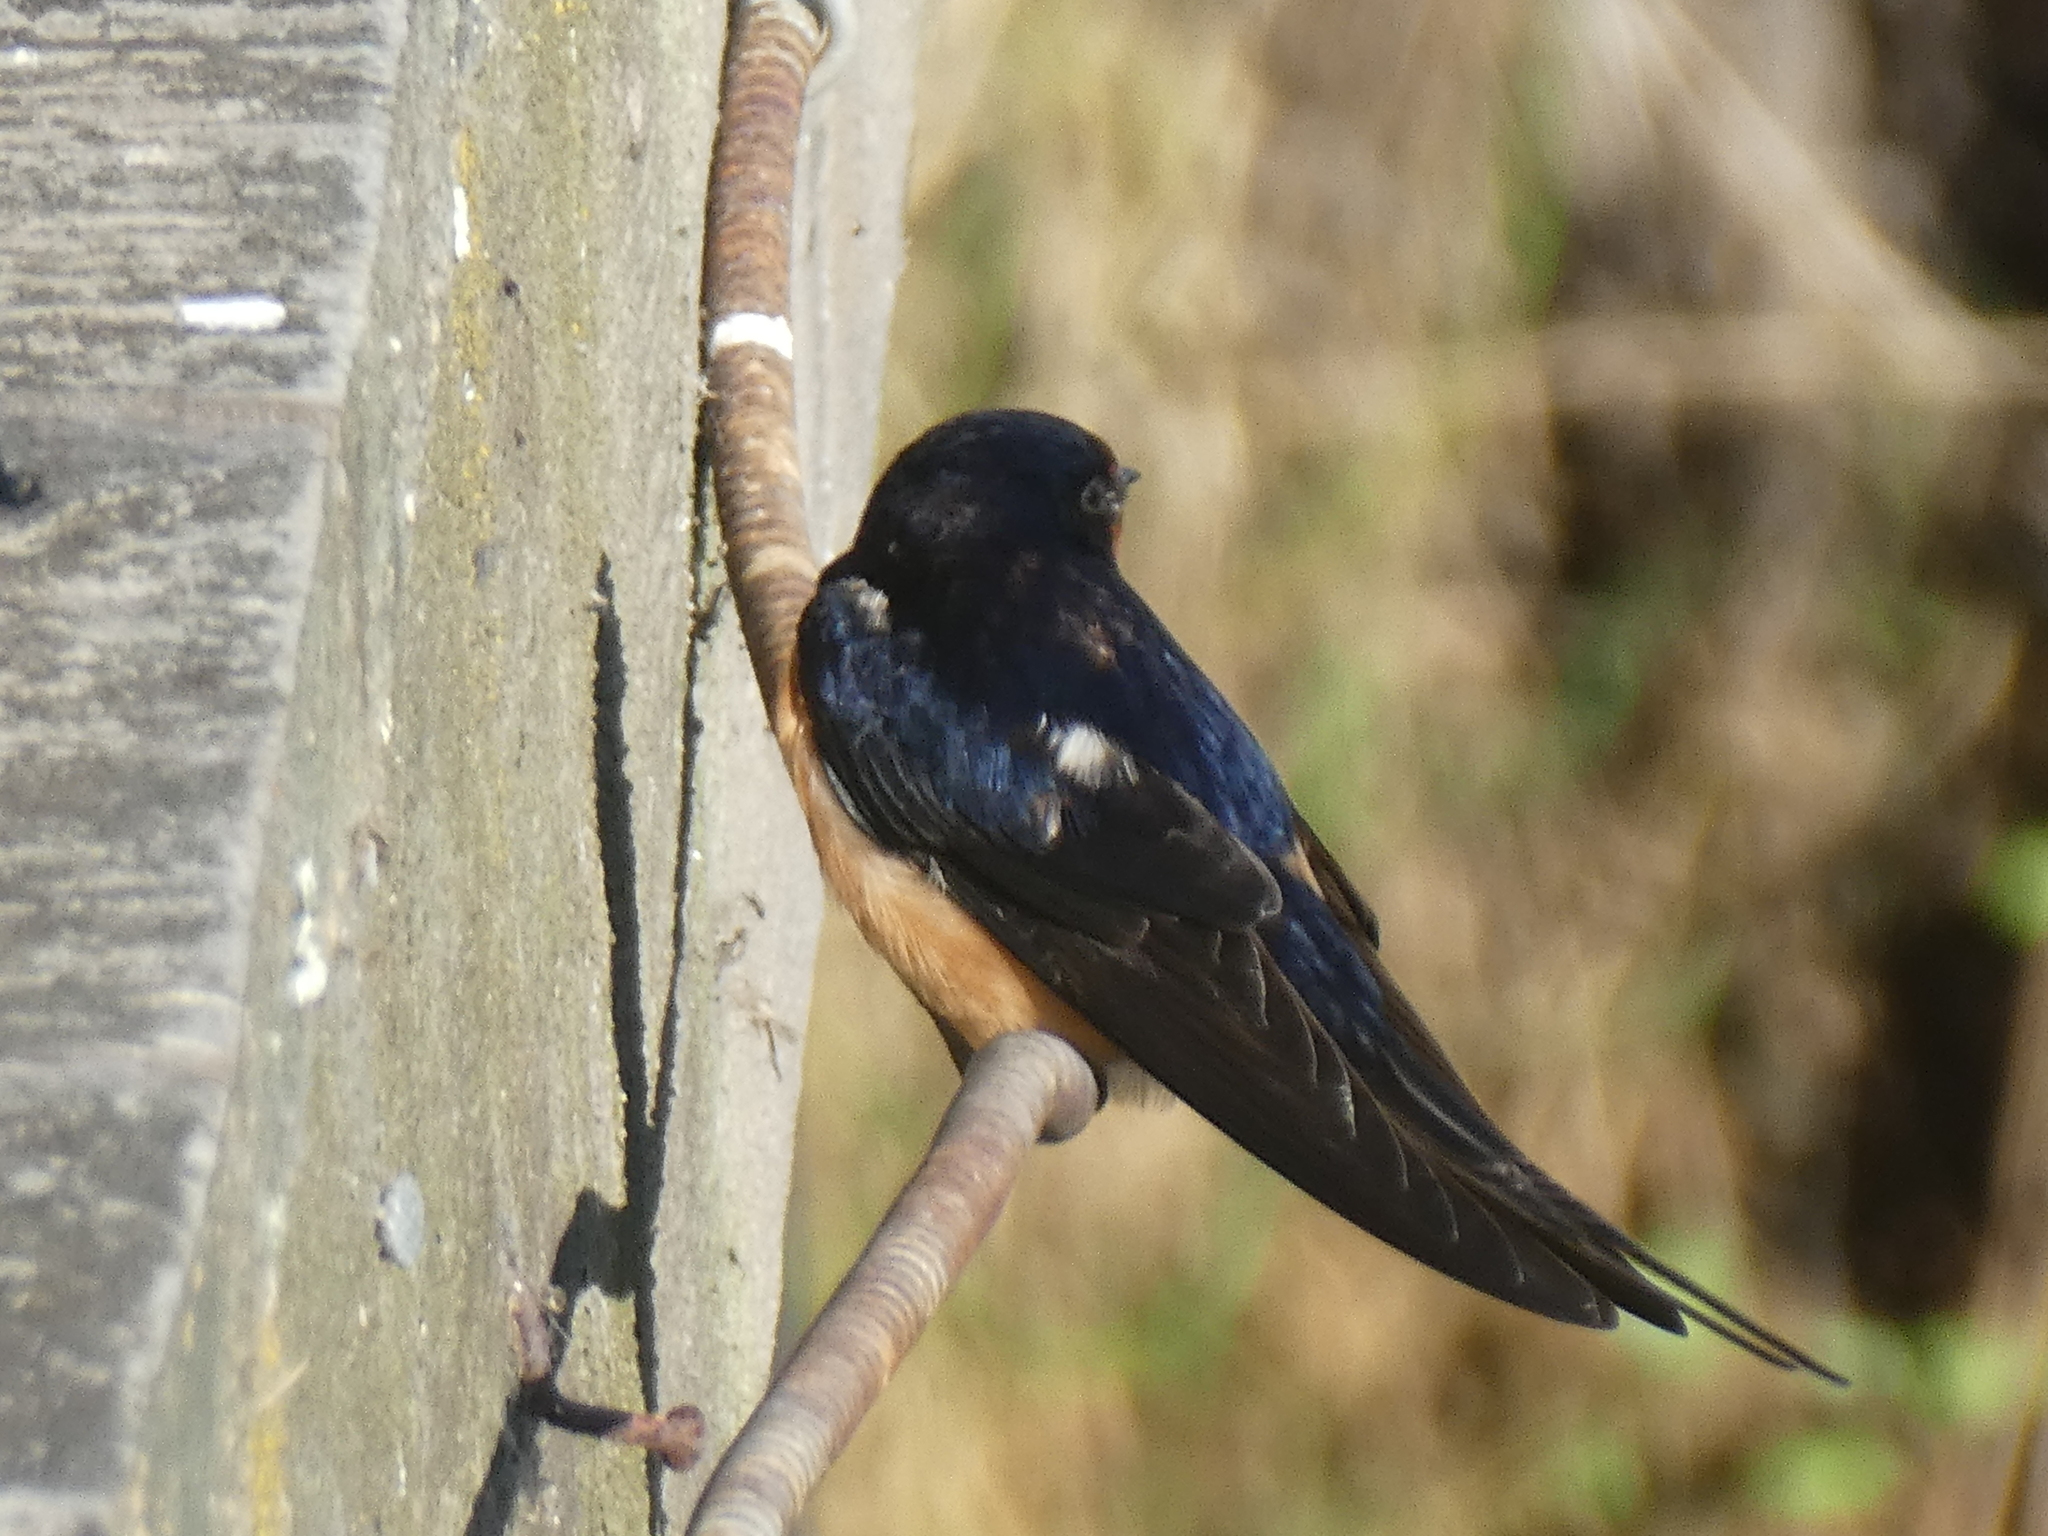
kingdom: Animalia
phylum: Chordata
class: Aves
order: Passeriformes
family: Hirundinidae
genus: Hirundo
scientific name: Hirundo rustica
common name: Barn swallow
